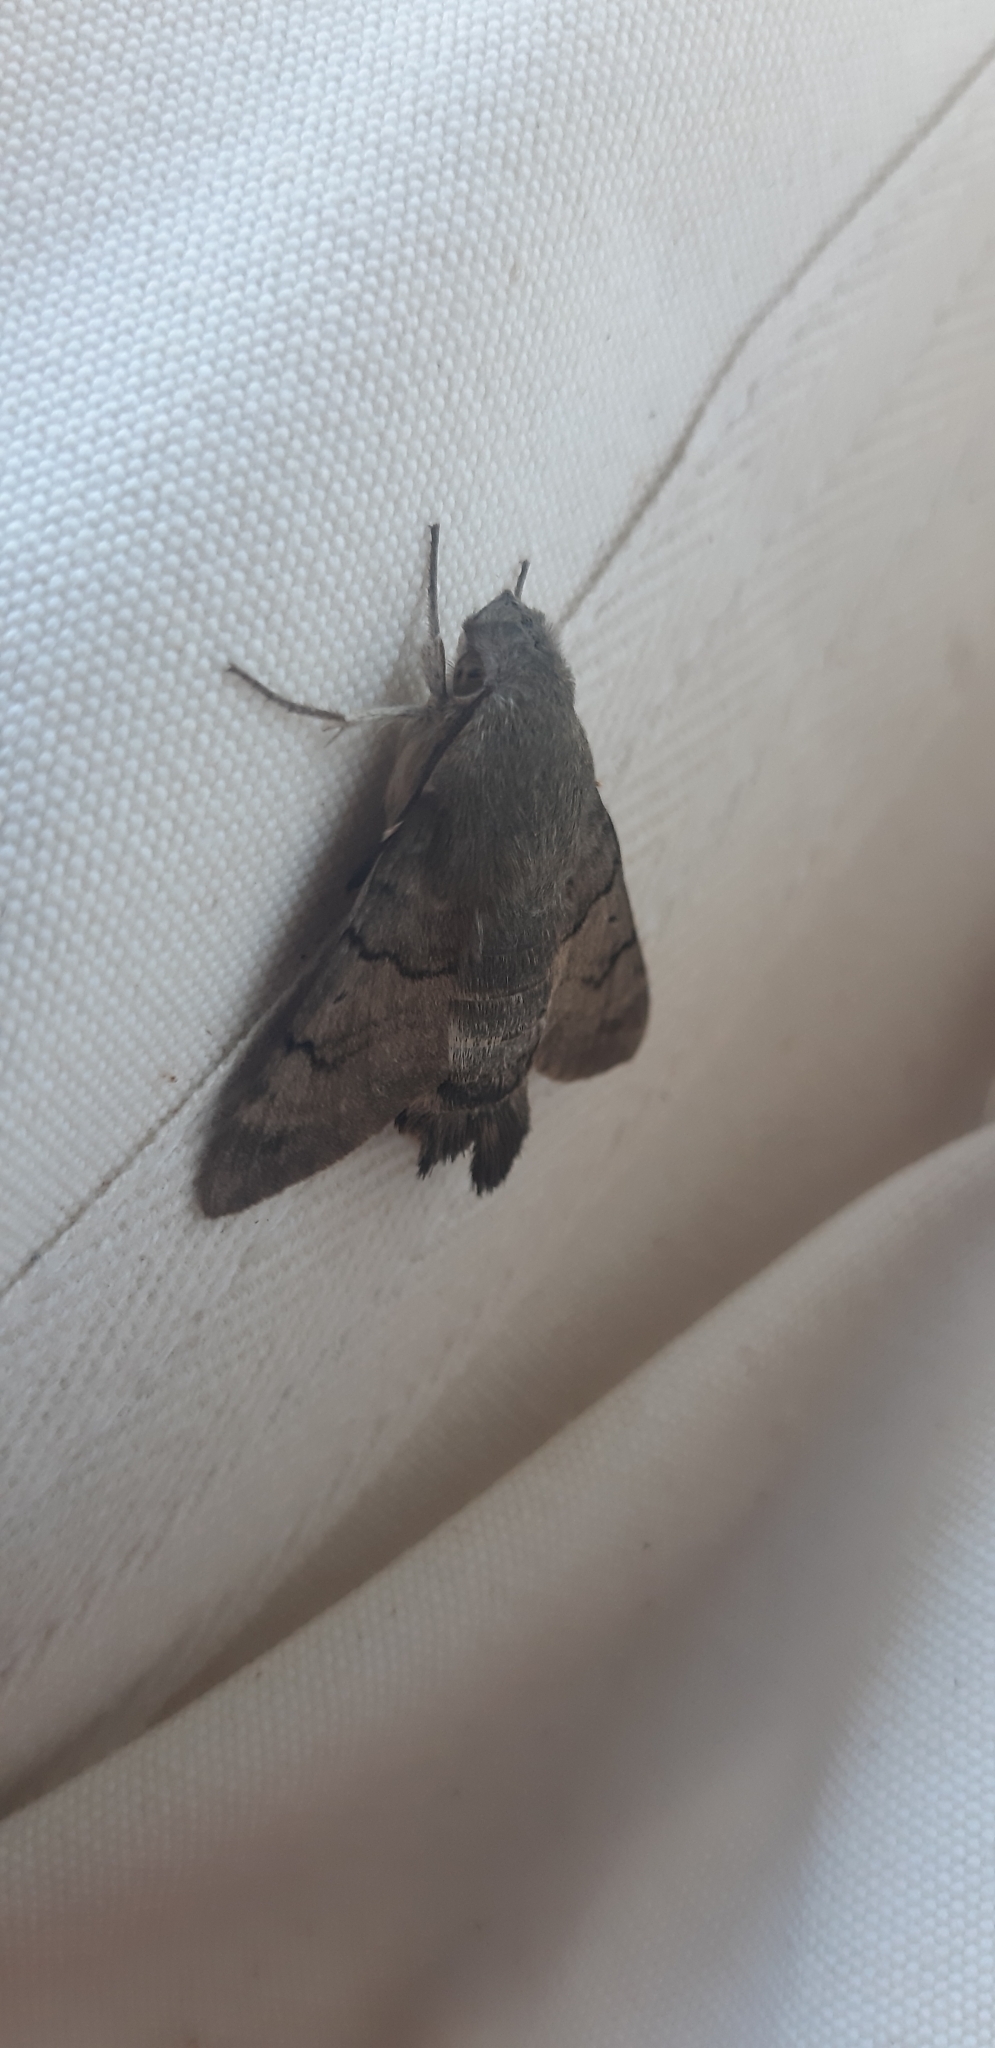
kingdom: Animalia
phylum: Arthropoda
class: Insecta
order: Lepidoptera
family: Sphingidae
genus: Macroglossum
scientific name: Macroglossum stellatarum
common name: Humming-bird hawk-moth
